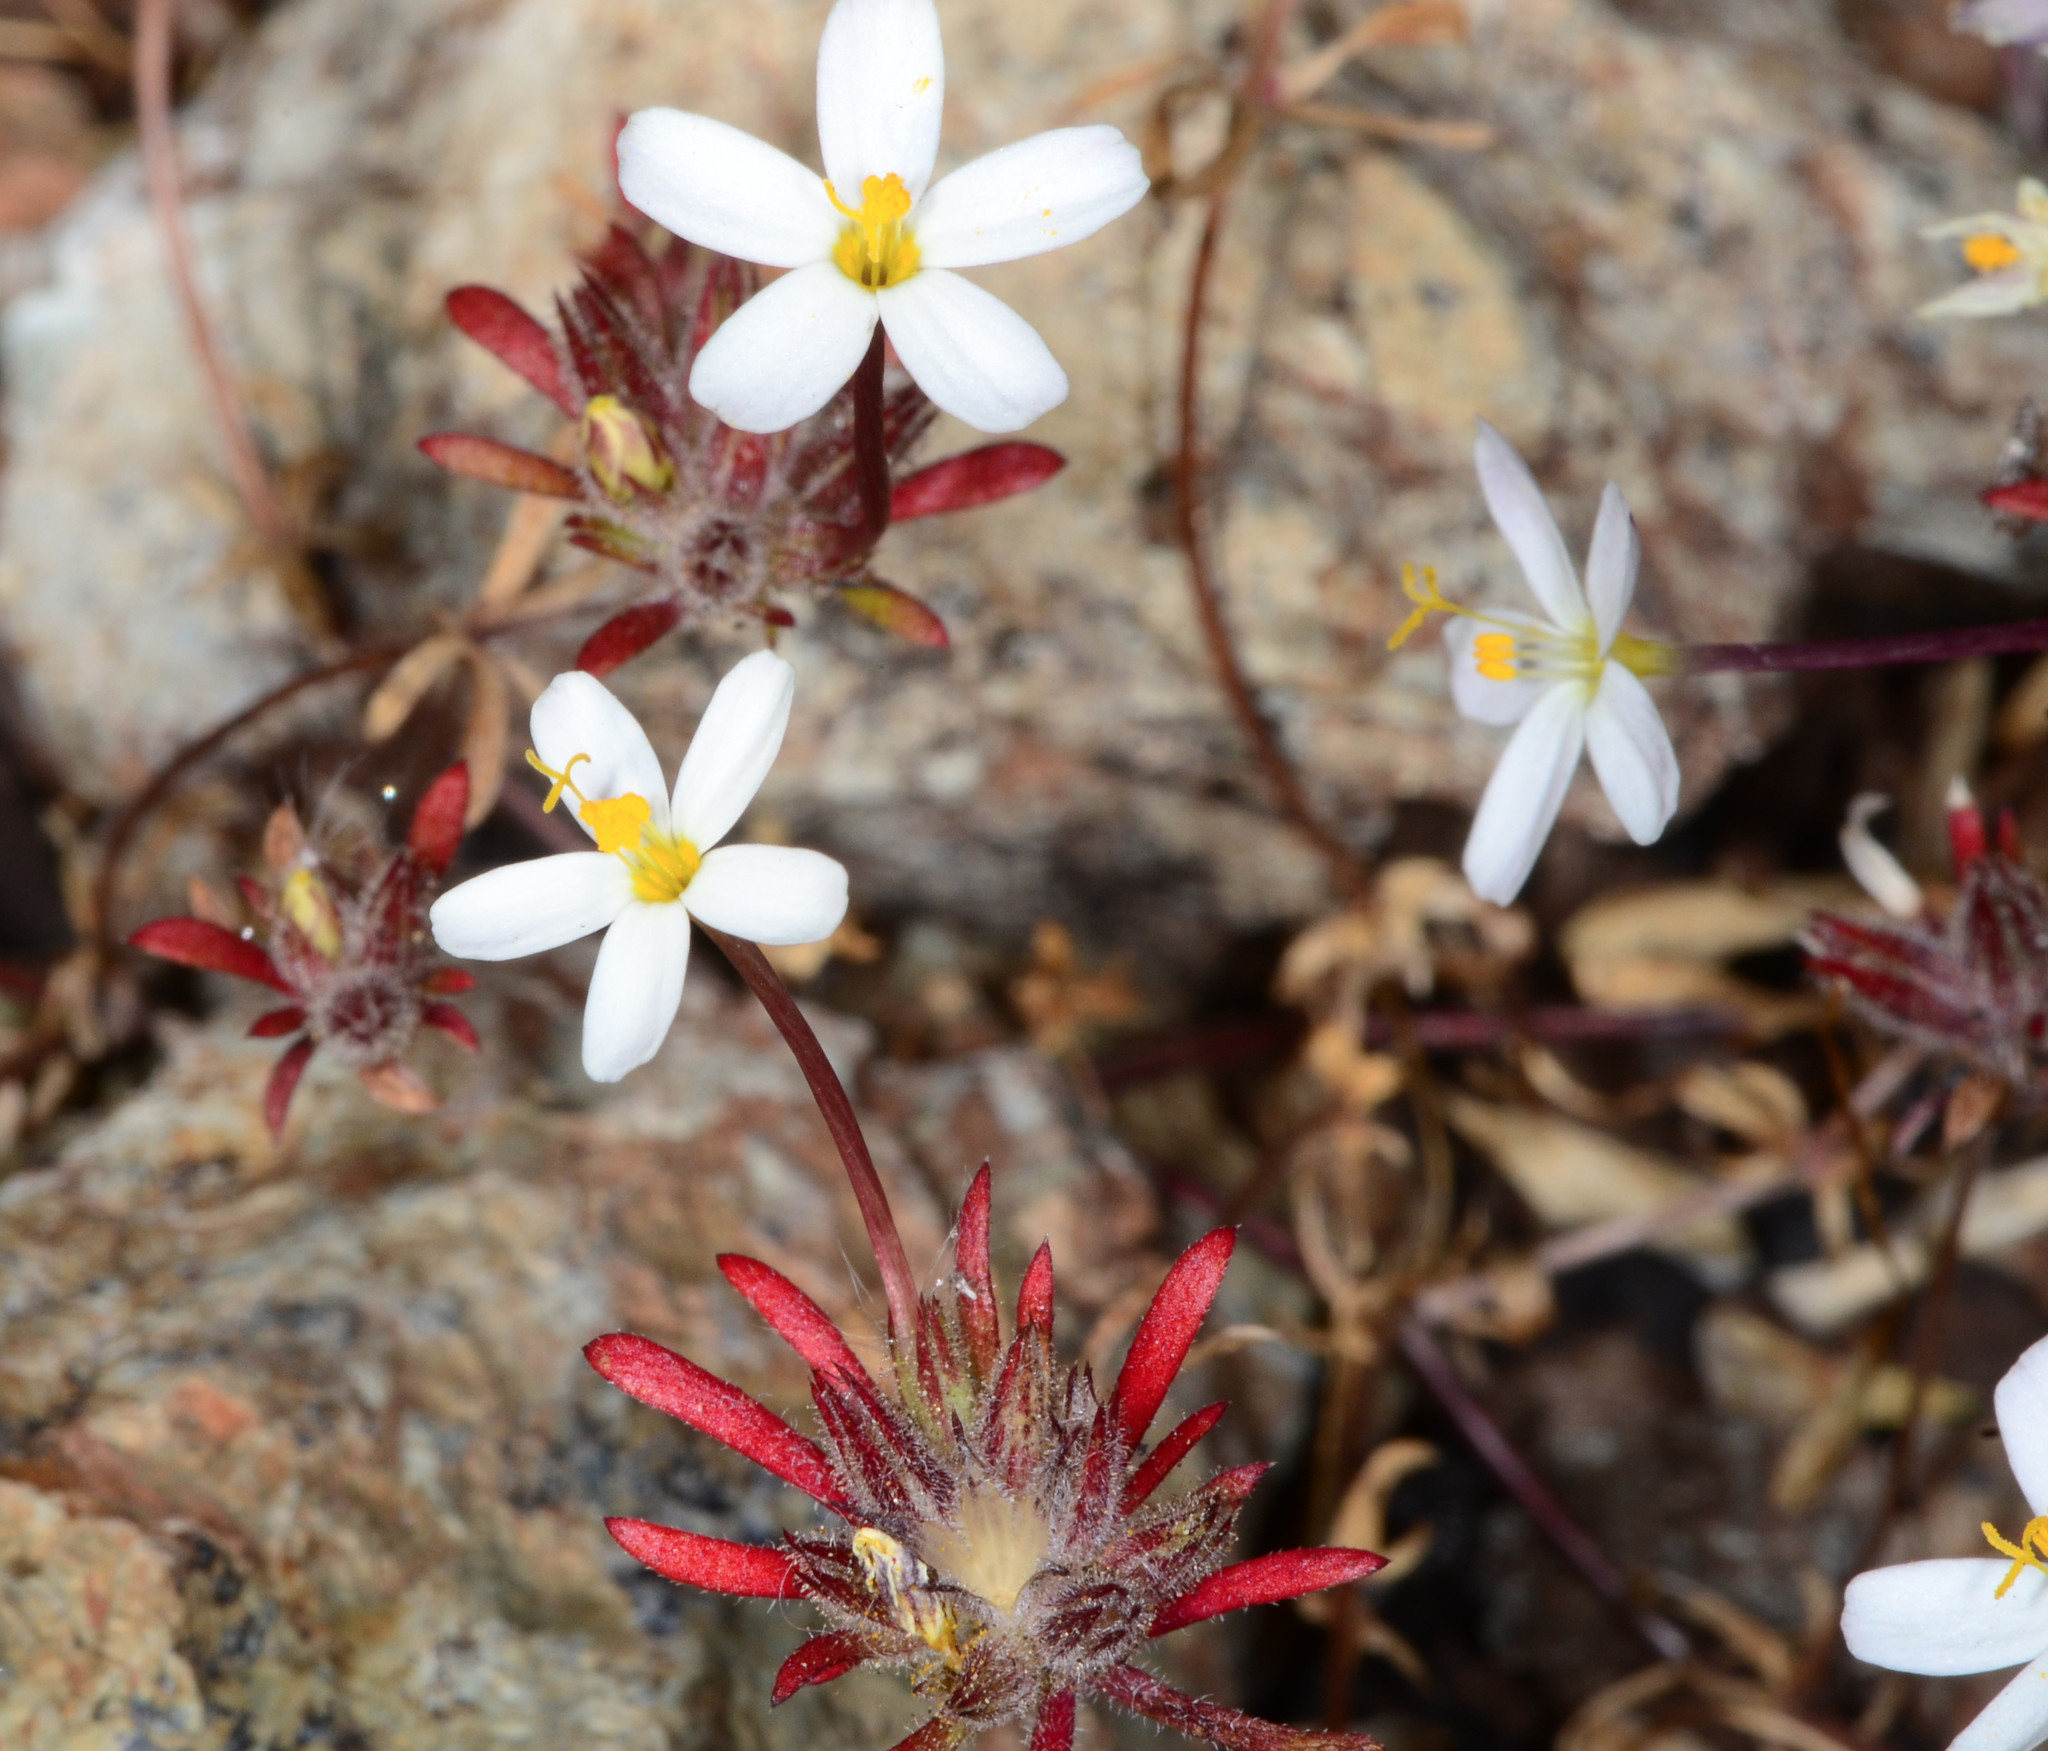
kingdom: Plantae
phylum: Tracheophyta
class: Magnoliopsida
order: Ericales
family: Polemoniaceae
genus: Leptosiphon
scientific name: Leptosiphon bicolor
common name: True babystars
